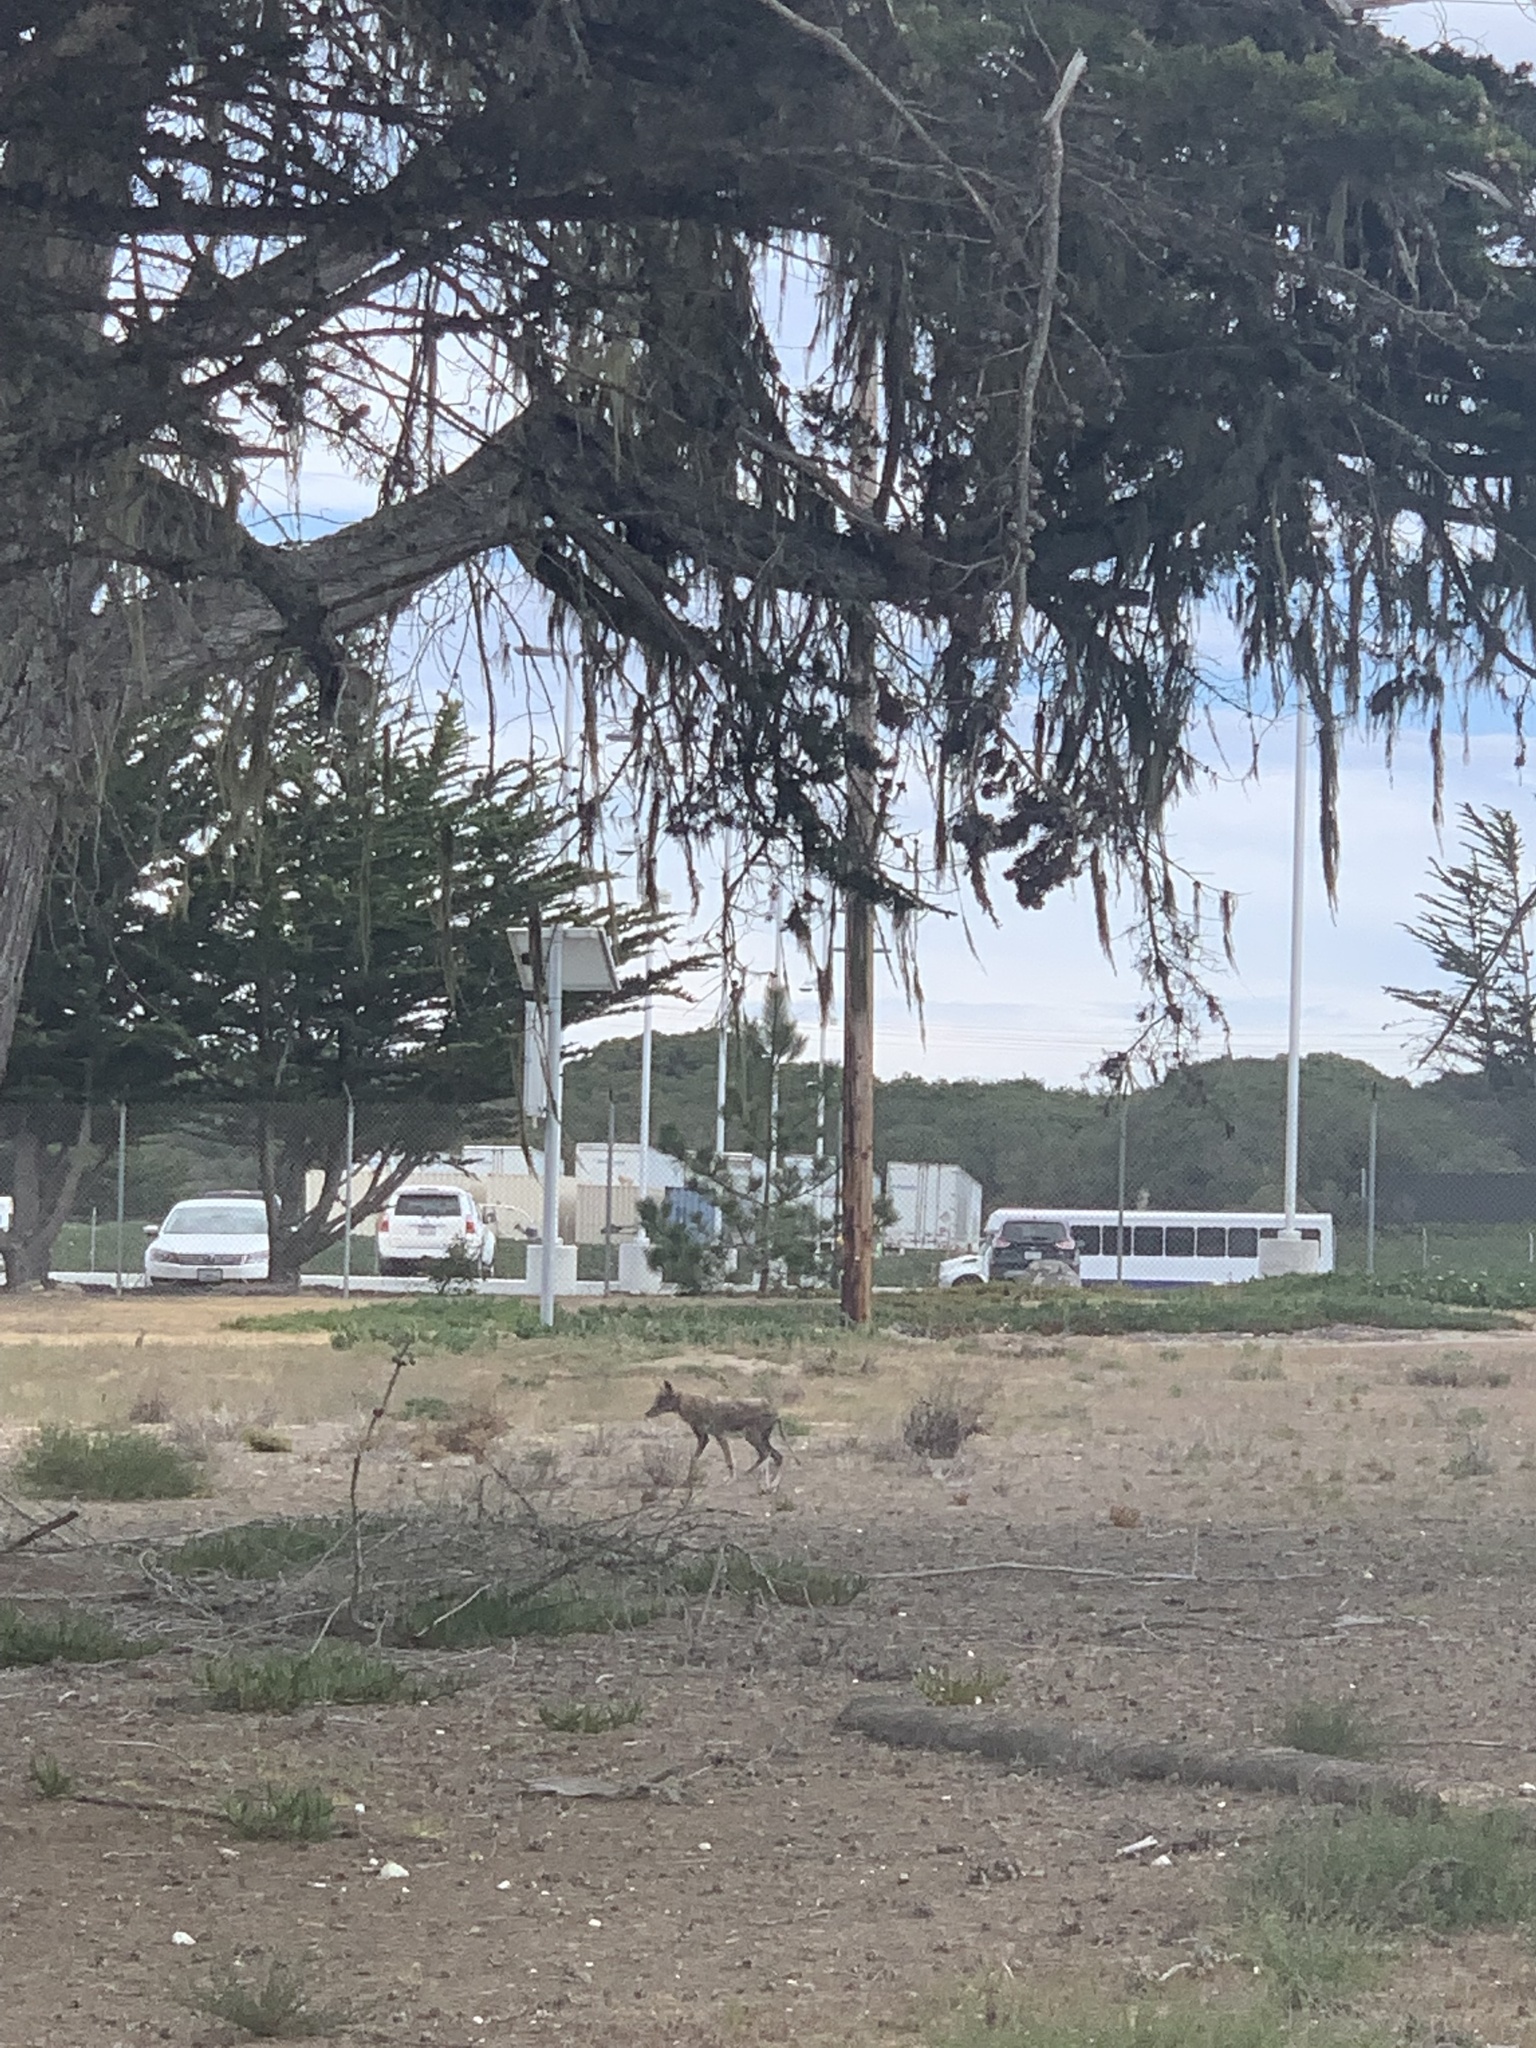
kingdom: Animalia
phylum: Chordata
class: Mammalia
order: Carnivora
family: Canidae
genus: Canis
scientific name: Canis latrans
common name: Coyote
